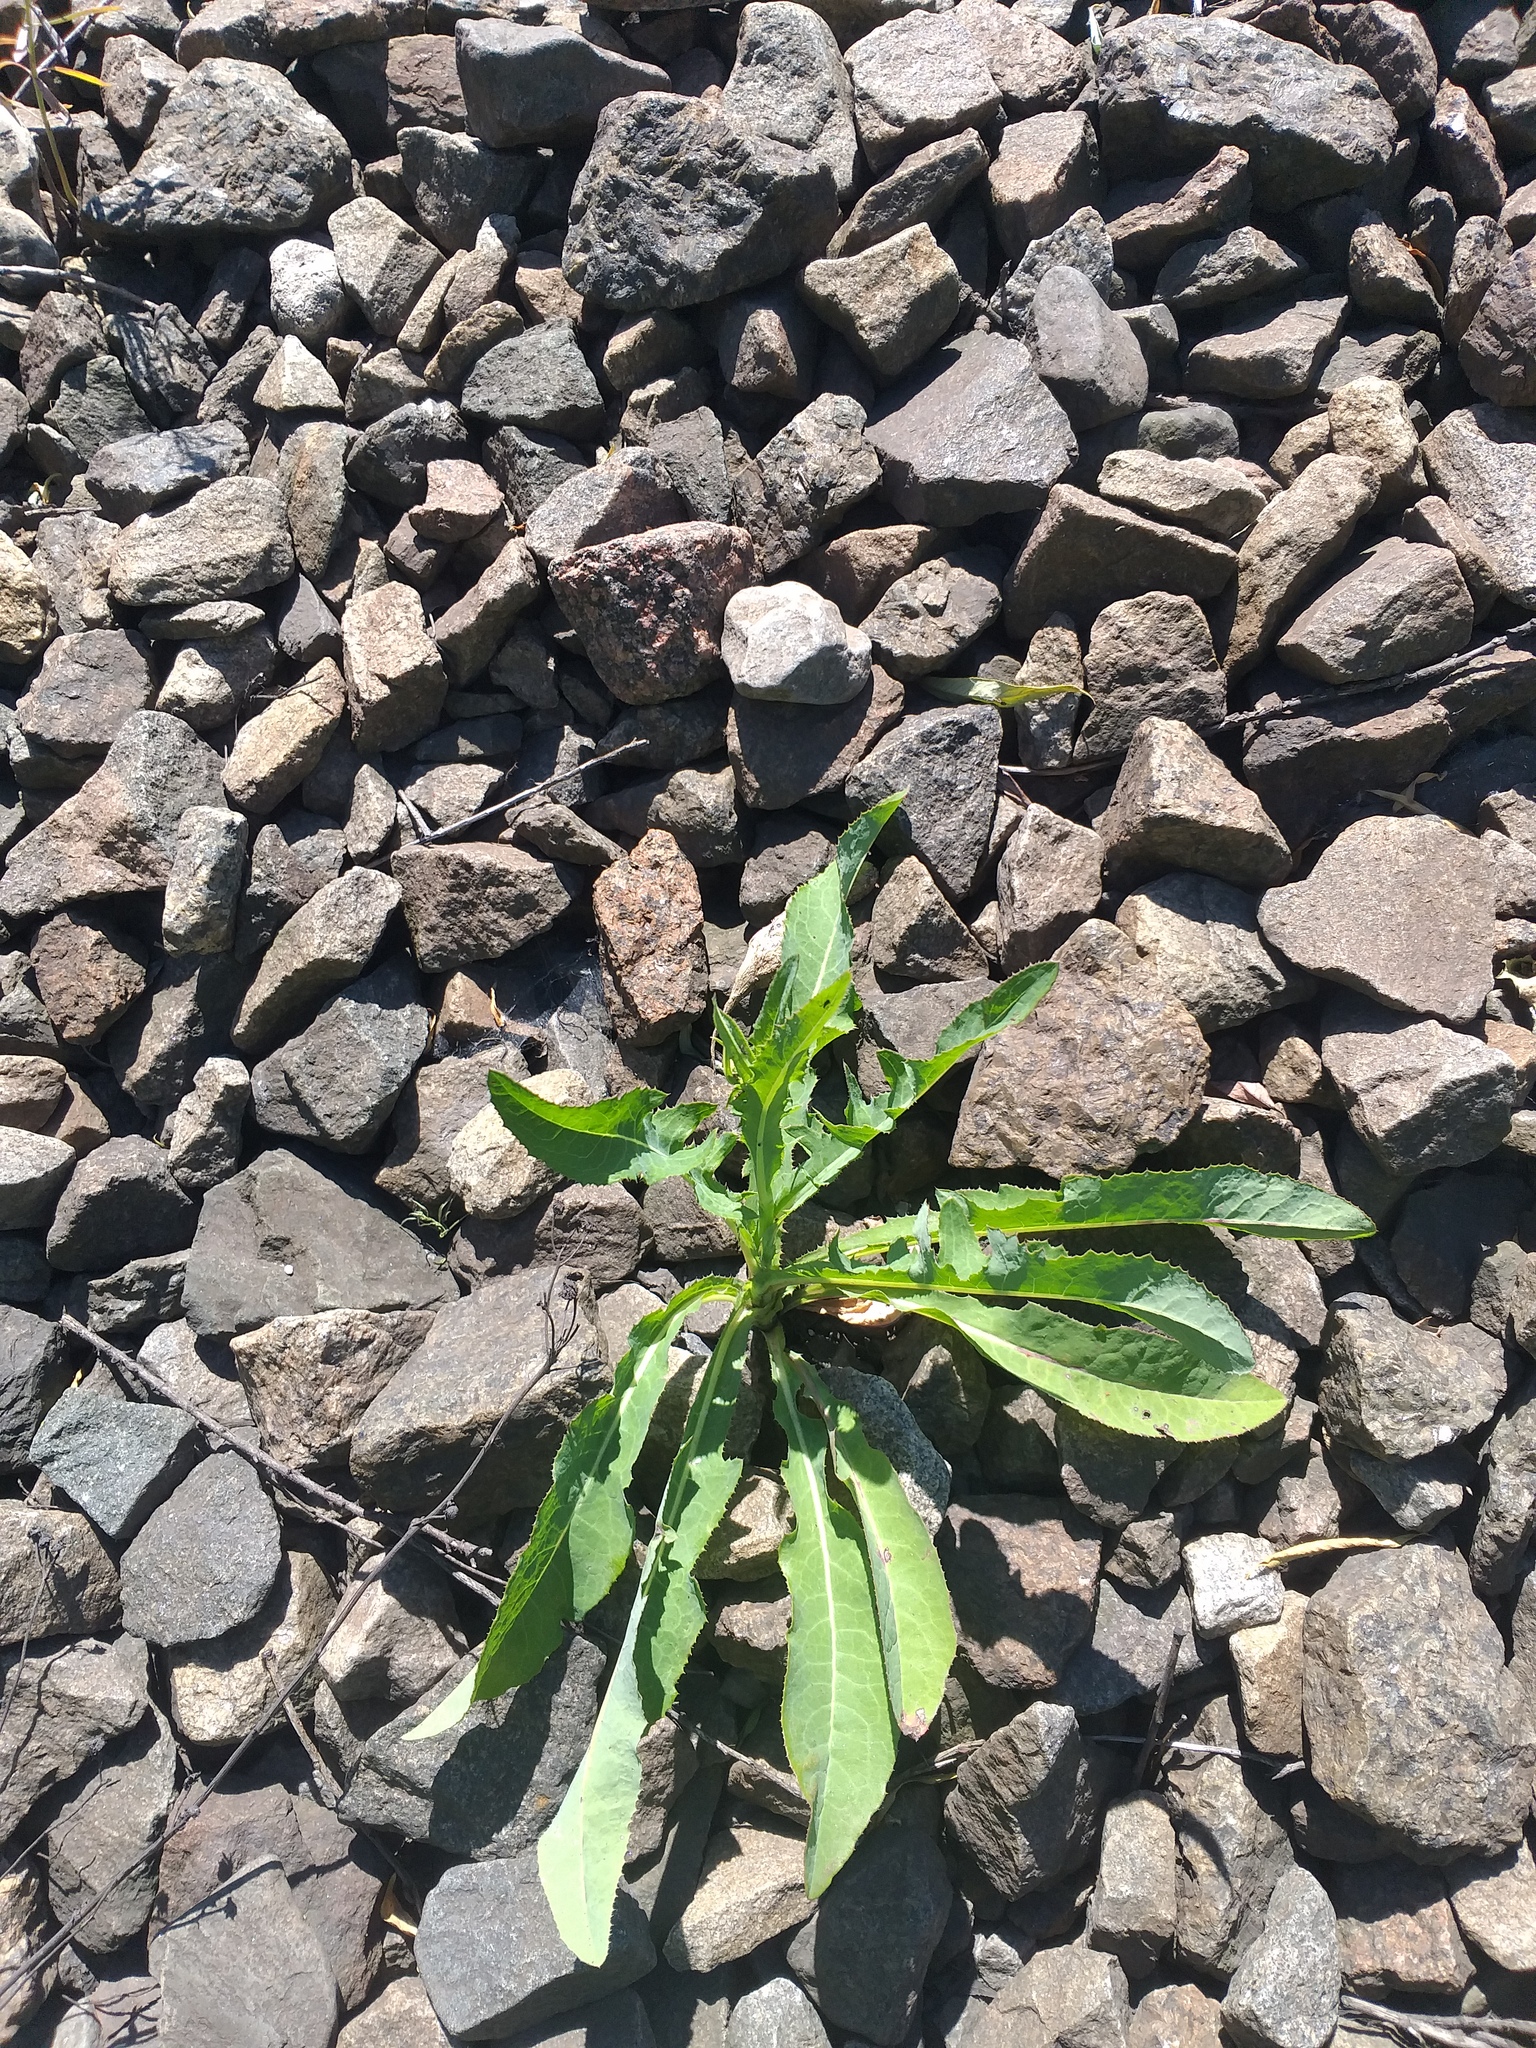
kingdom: Plantae
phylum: Tracheophyta
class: Magnoliopsida
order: Asterales
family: Asteraceae
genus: Sonchus
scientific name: Sonchus arvensis
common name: Perennial sow-thistle
